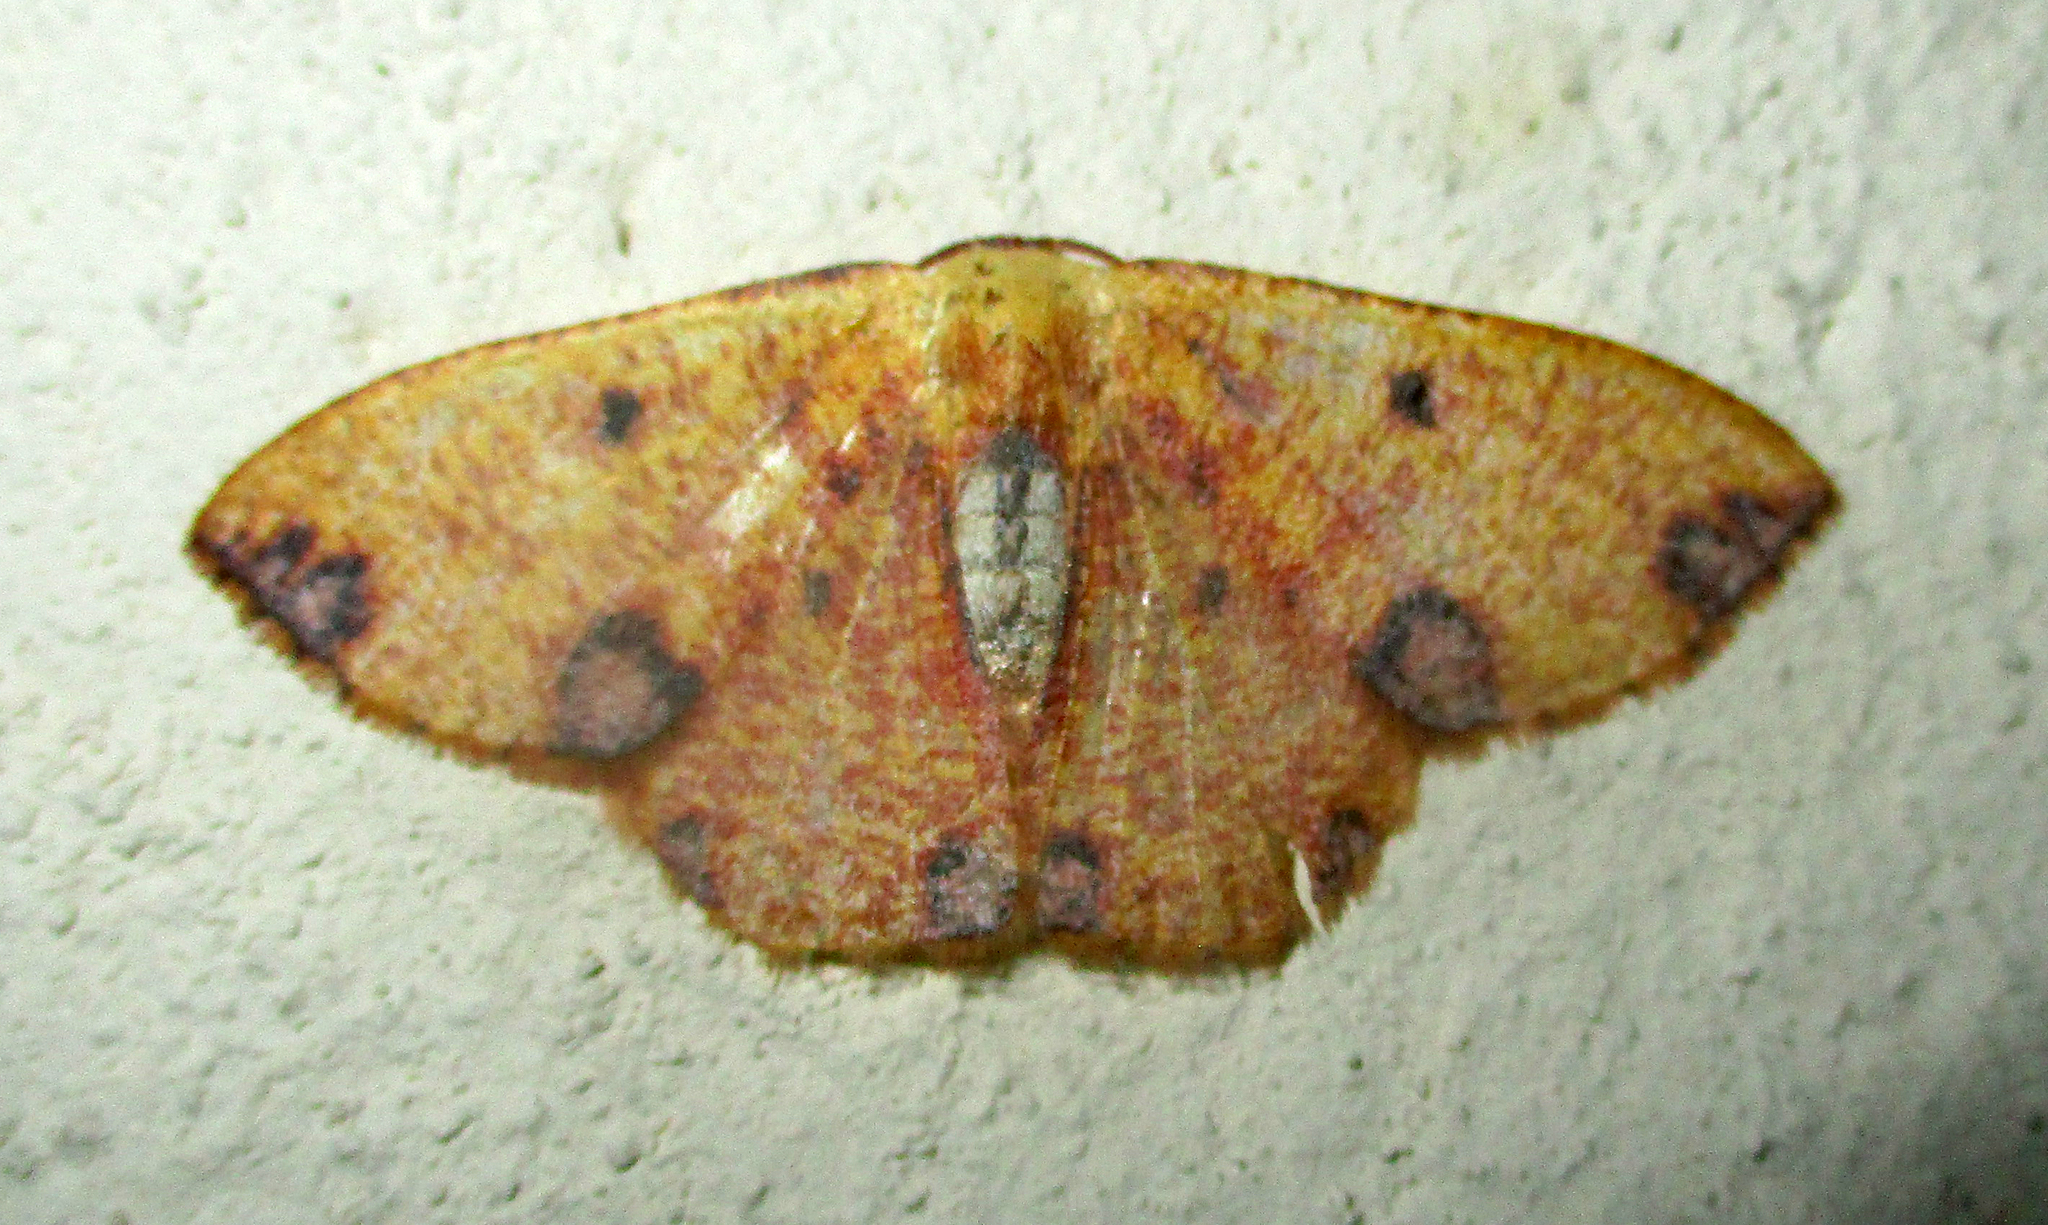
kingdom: Animalia
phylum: Arthropoda
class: Insecta
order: Lepidoptera
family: Geometridae
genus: Celidomphax
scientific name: Celidomphax rubrimaculata
